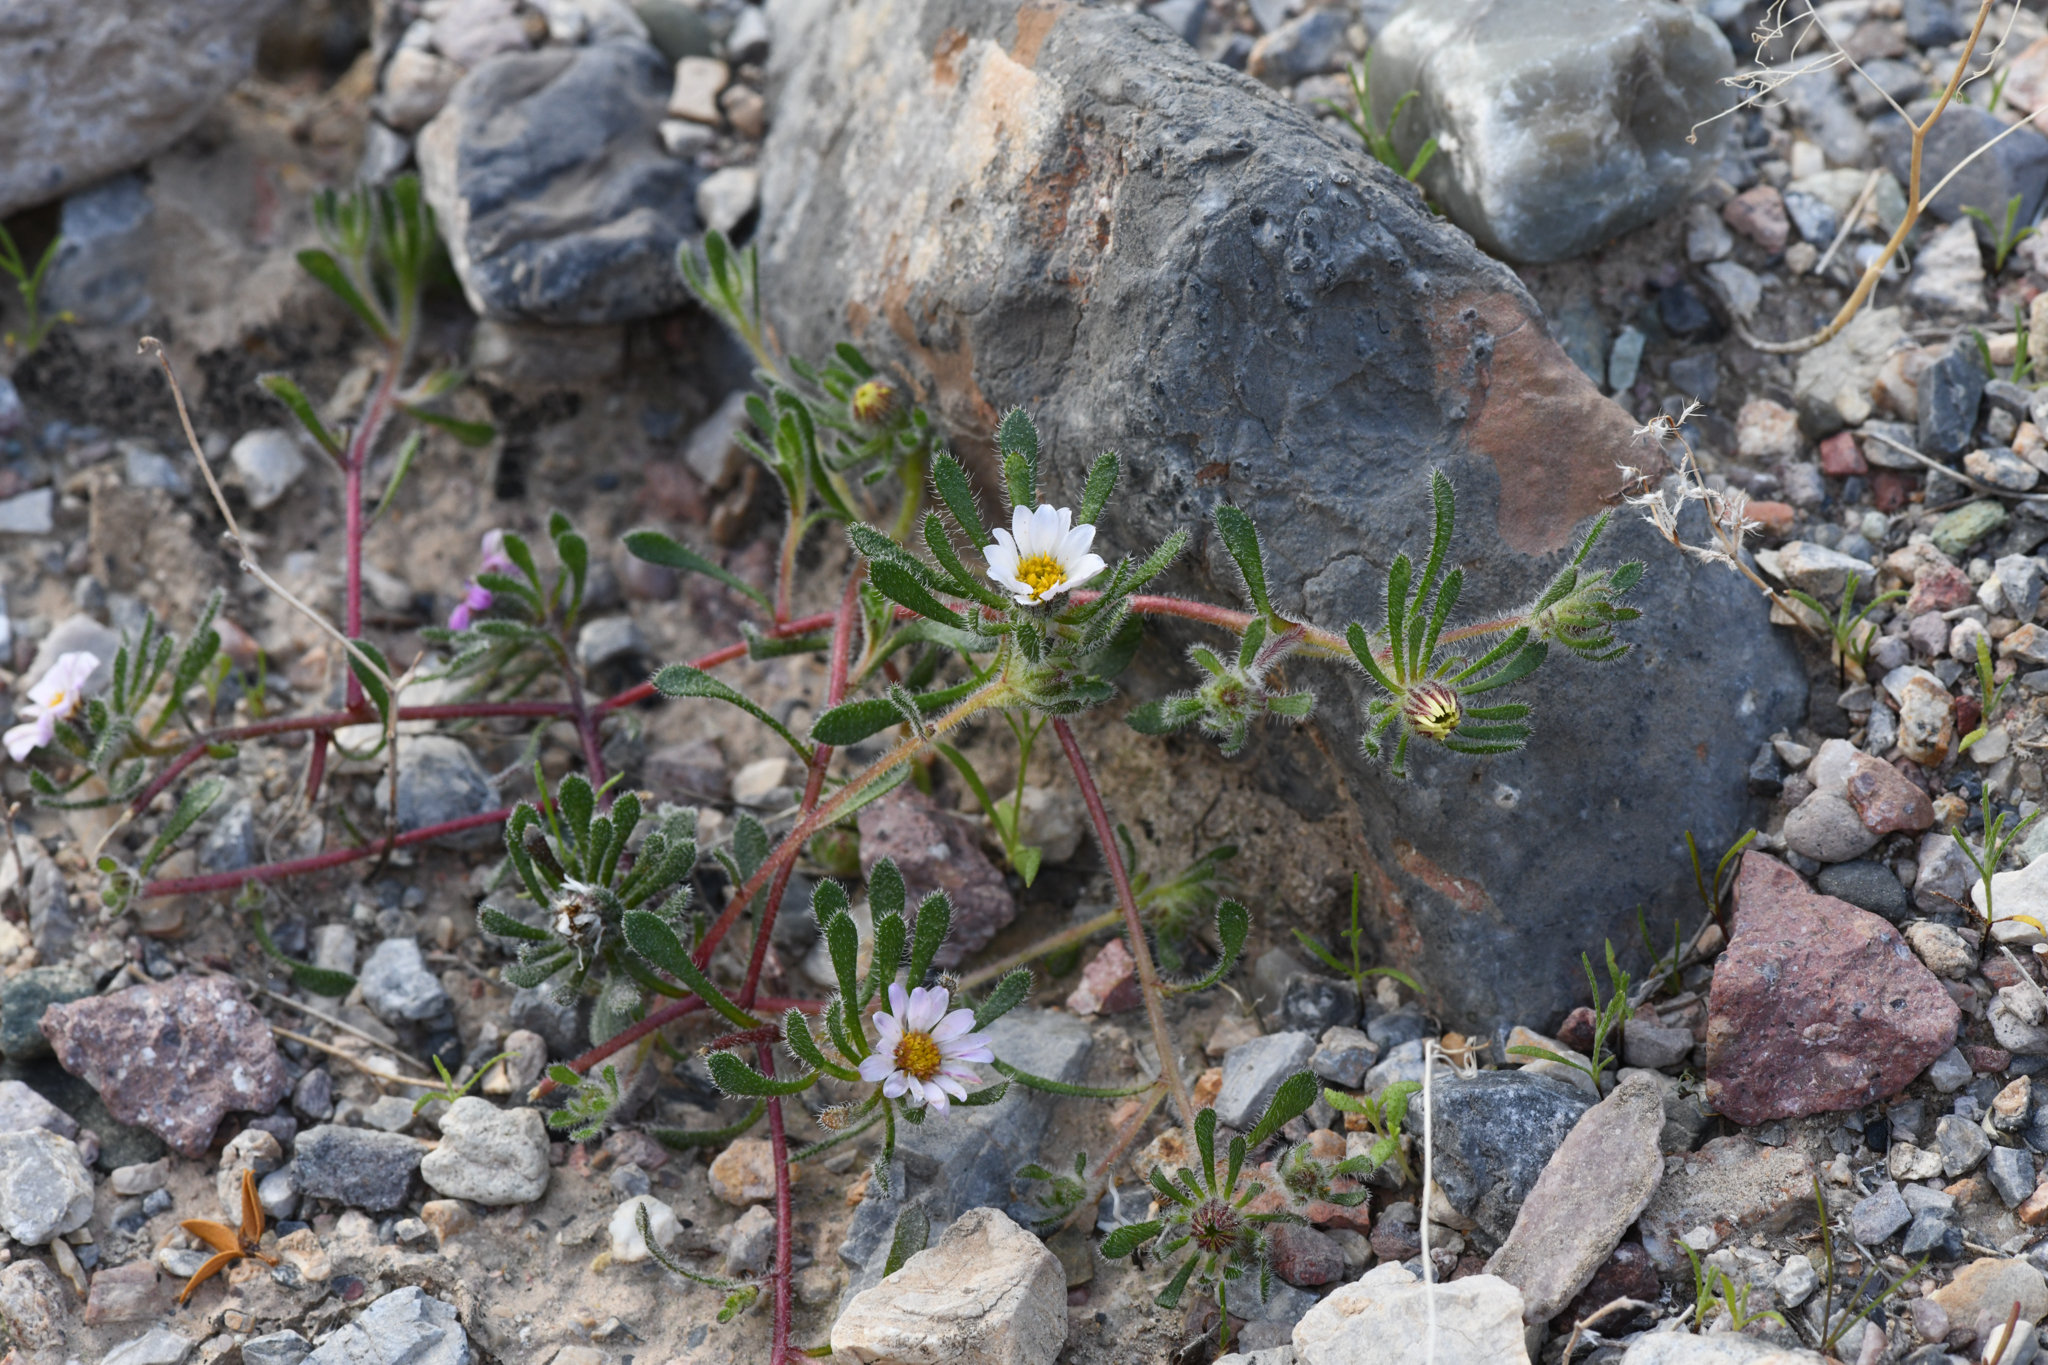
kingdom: Plantae
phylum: Tracheophyta
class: Magnoliopsida
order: Asterales
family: Asteraceae
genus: Monoptilon
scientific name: Monoptilon bellioides
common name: Bristly desertstar
